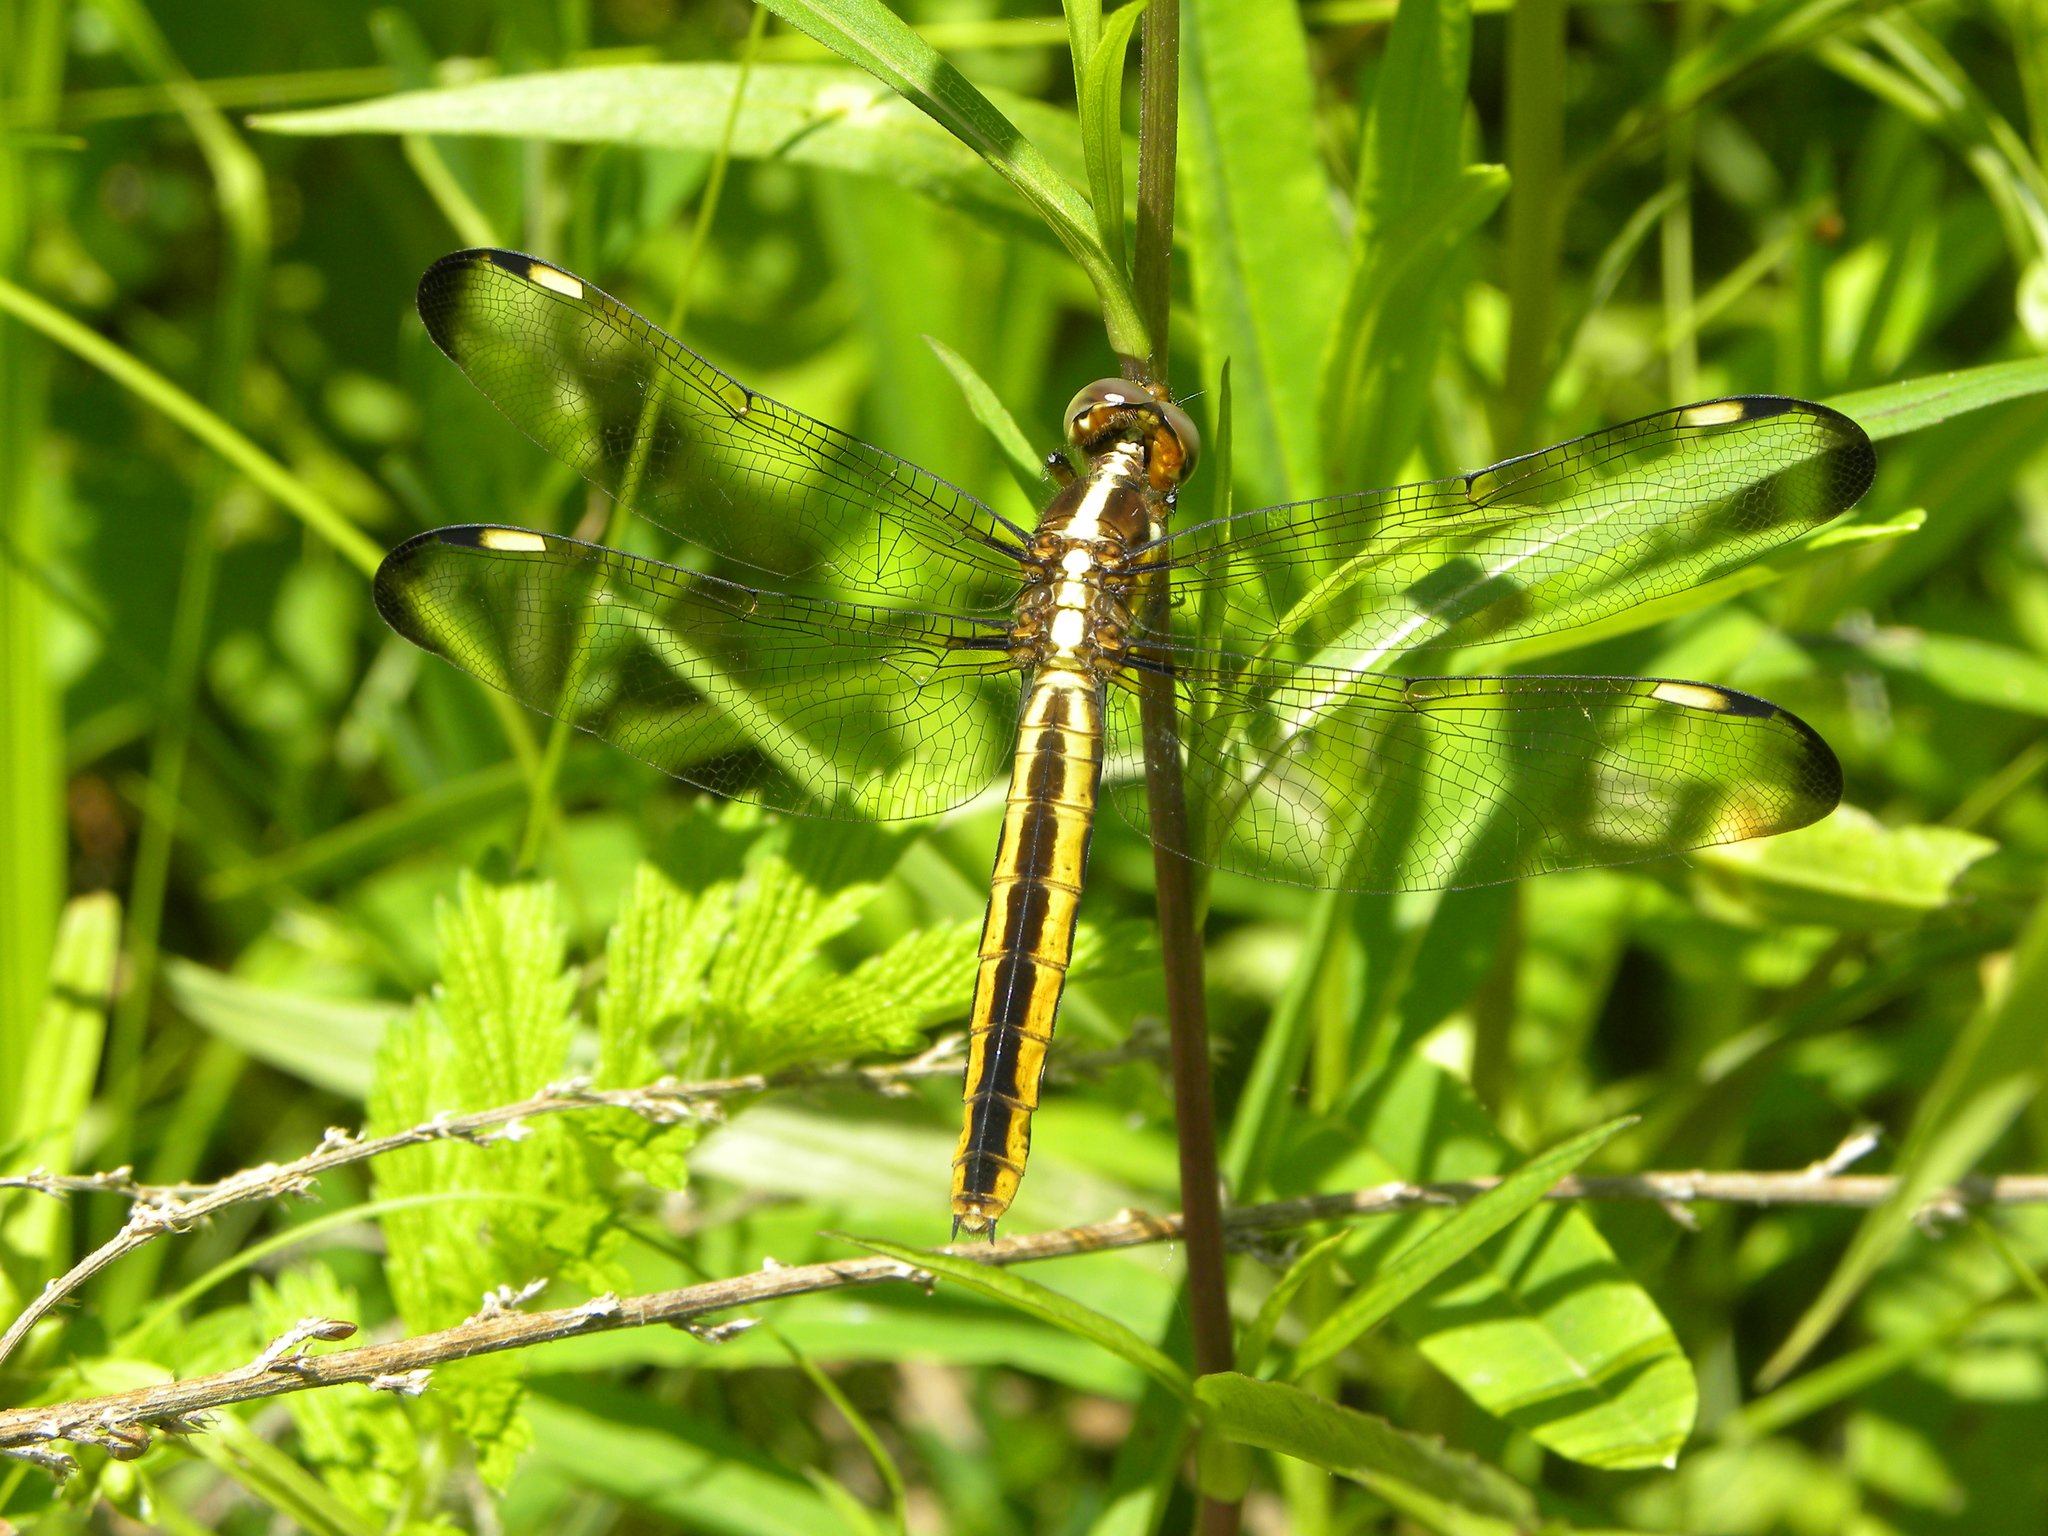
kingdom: Animalia
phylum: Arthropoda
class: Insecta
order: Odonata
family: Libellulidae
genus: Libellula
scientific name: Libellula cyanea
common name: Spangled skimmer
